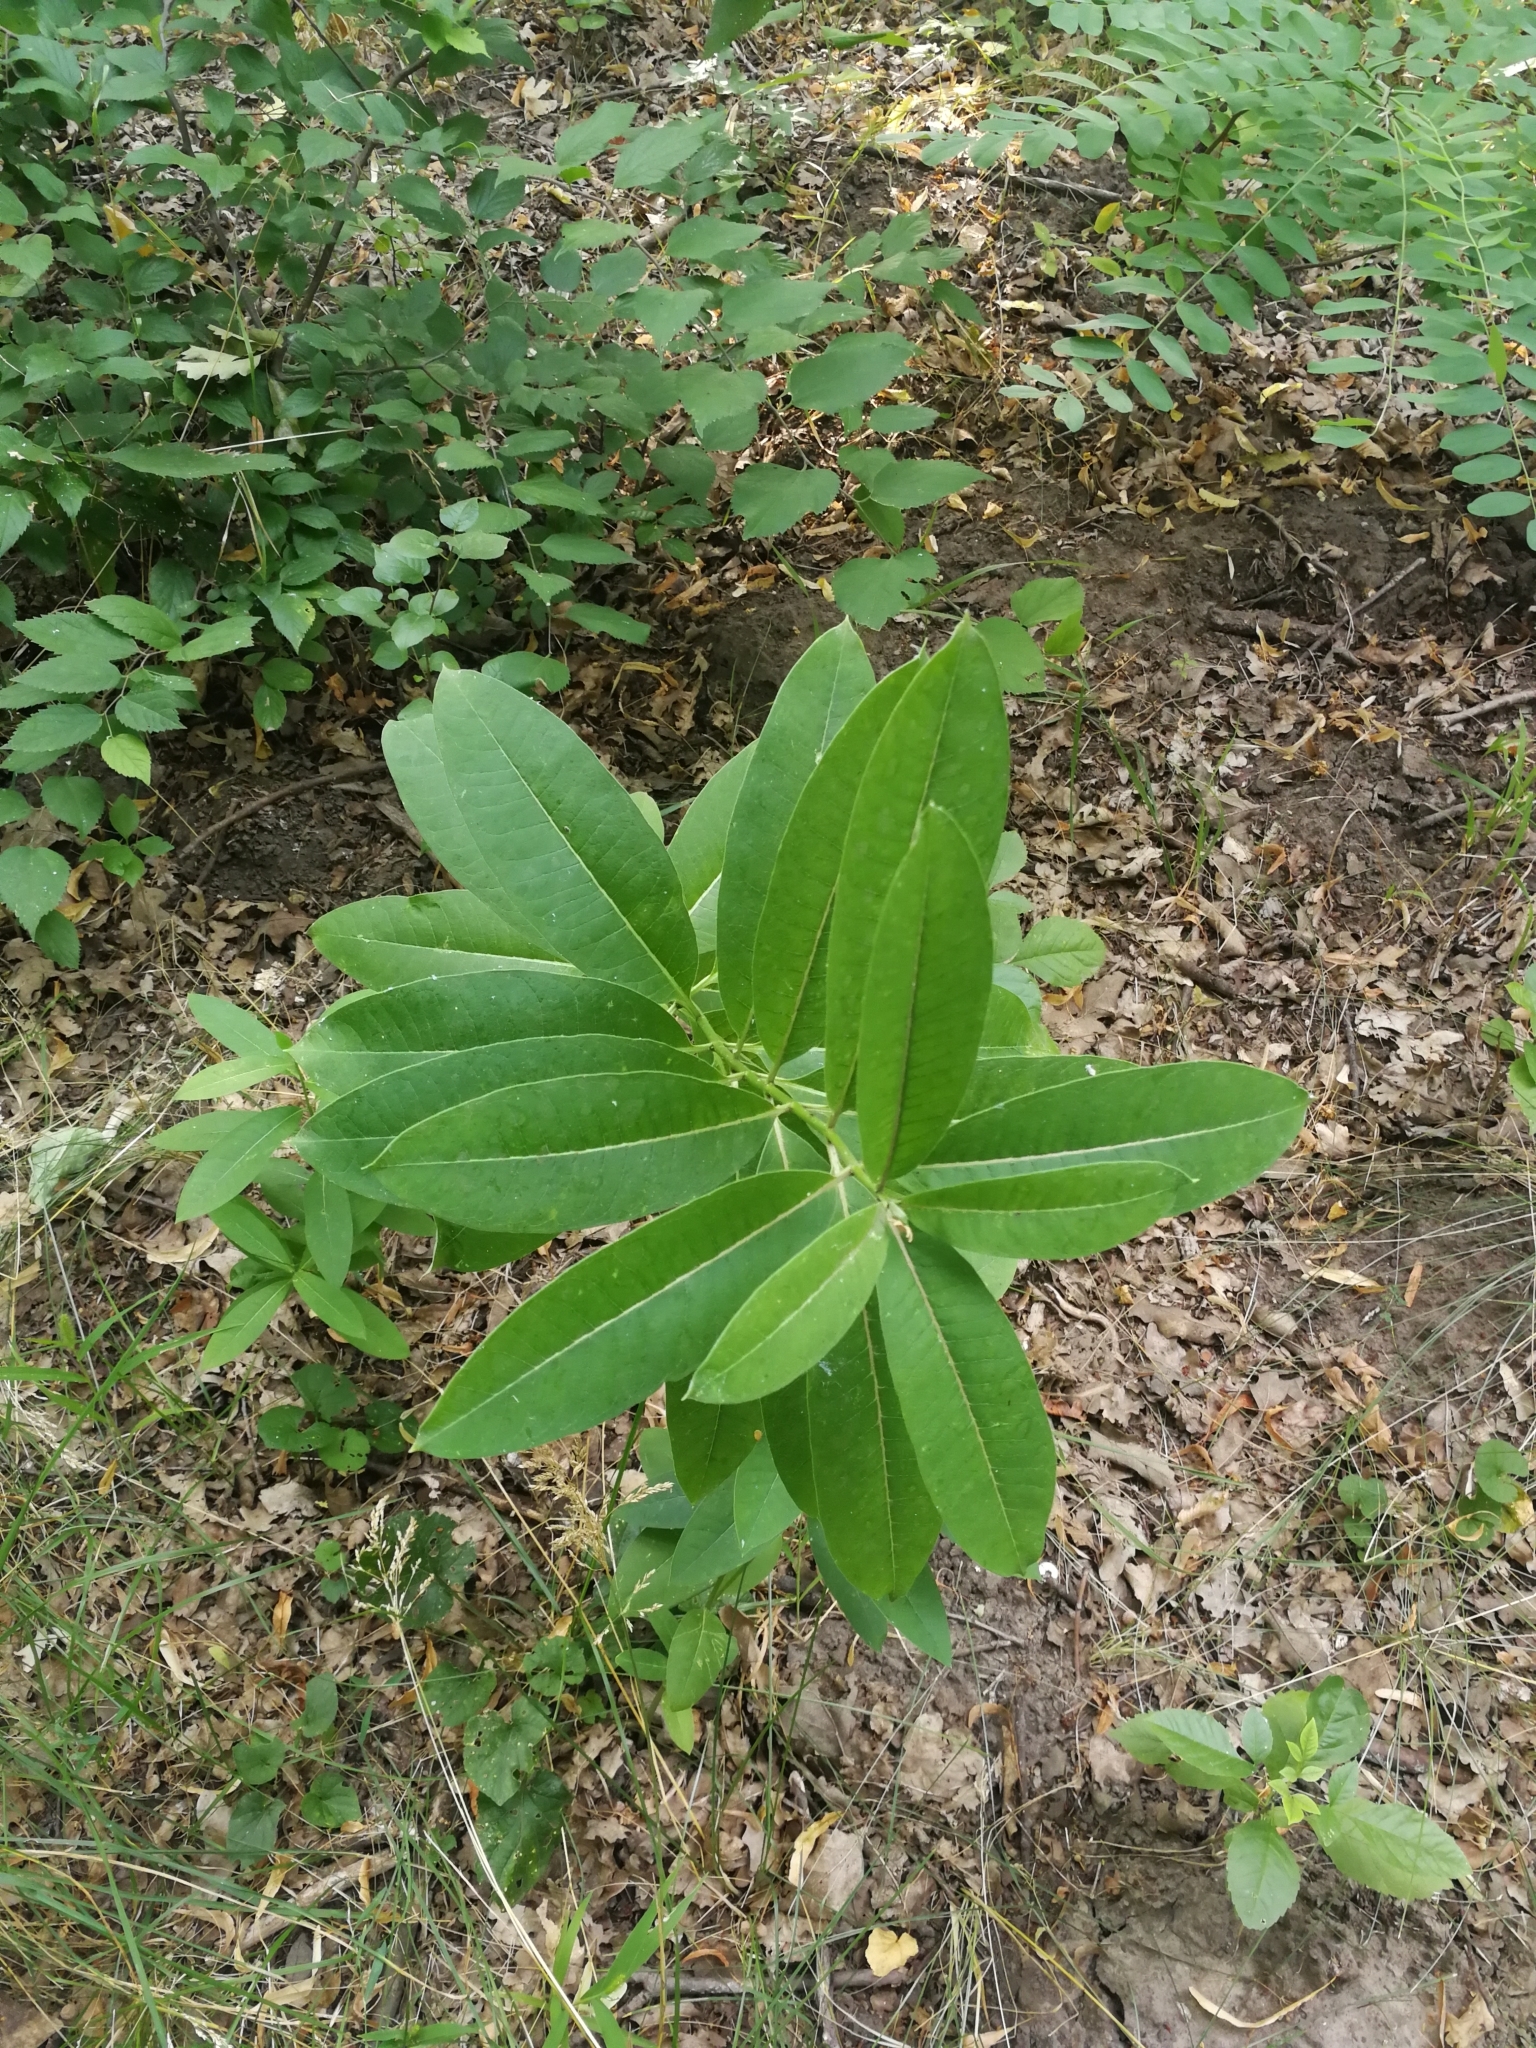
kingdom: Plantae
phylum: Tracheophyta
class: Magnoliopsida
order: Gentianales
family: Apocynaceae
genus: Asclepias
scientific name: Asclepias syriaca
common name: Common milkweed
